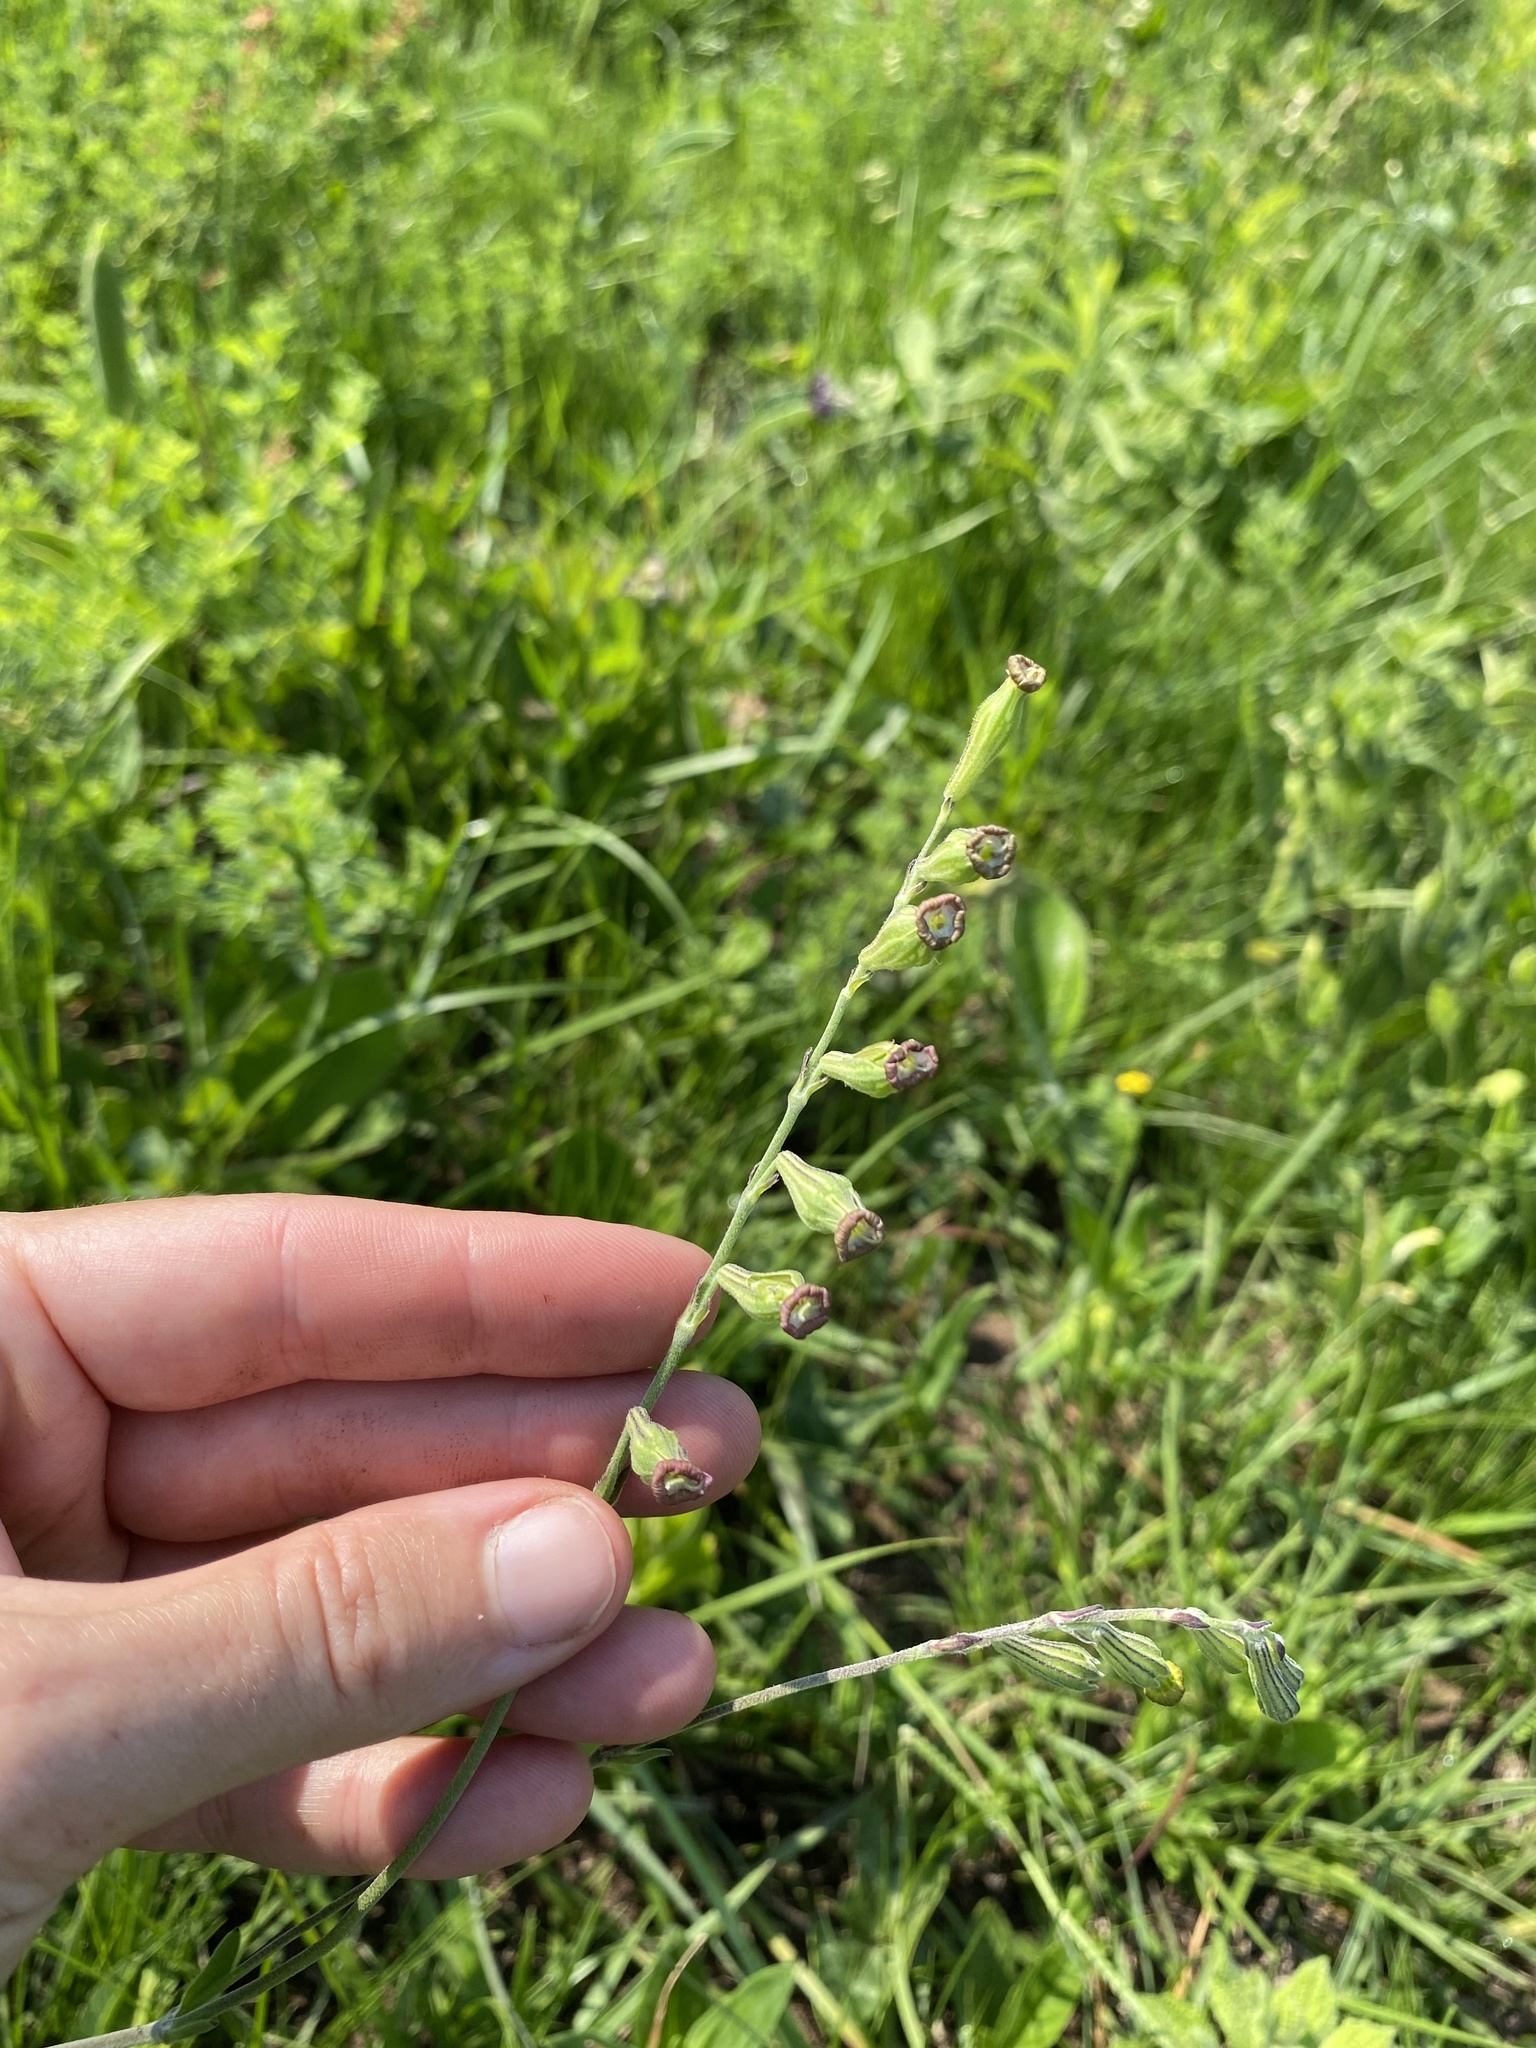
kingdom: Plantae
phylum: Tracheophyta
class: Magnoliopsida
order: Caryophyllales
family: Caryophyllaceae
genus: Silene
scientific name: Silene burchellii
